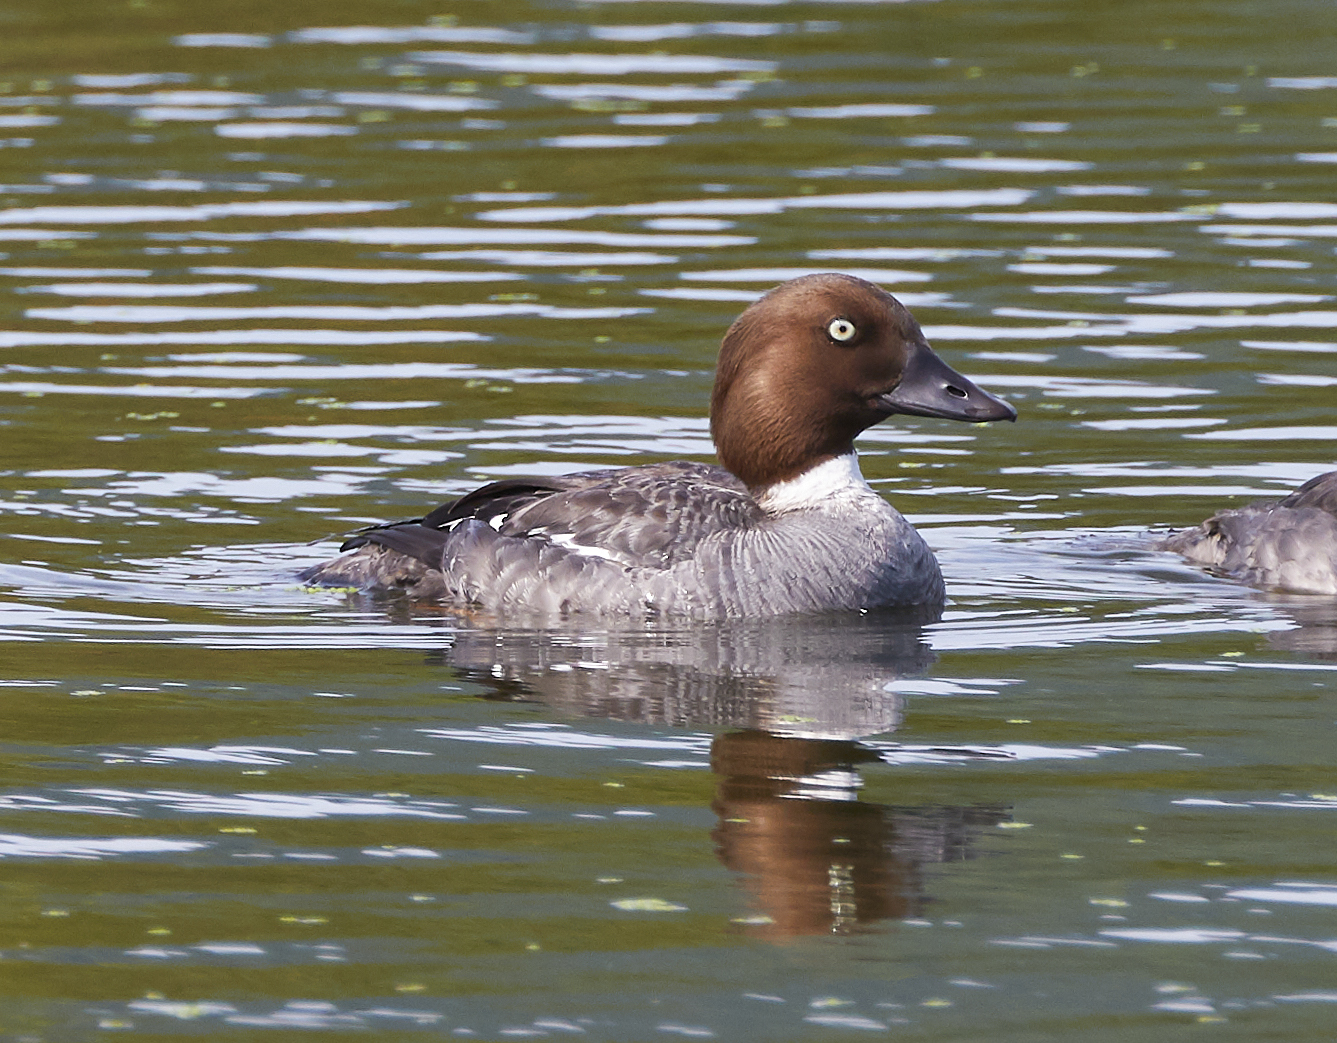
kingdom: Animalia
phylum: Chordata
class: Aves
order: Anseriformes
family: Anatidae
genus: Bucephala
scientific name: Bucephala clangula
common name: Common goldeneye
